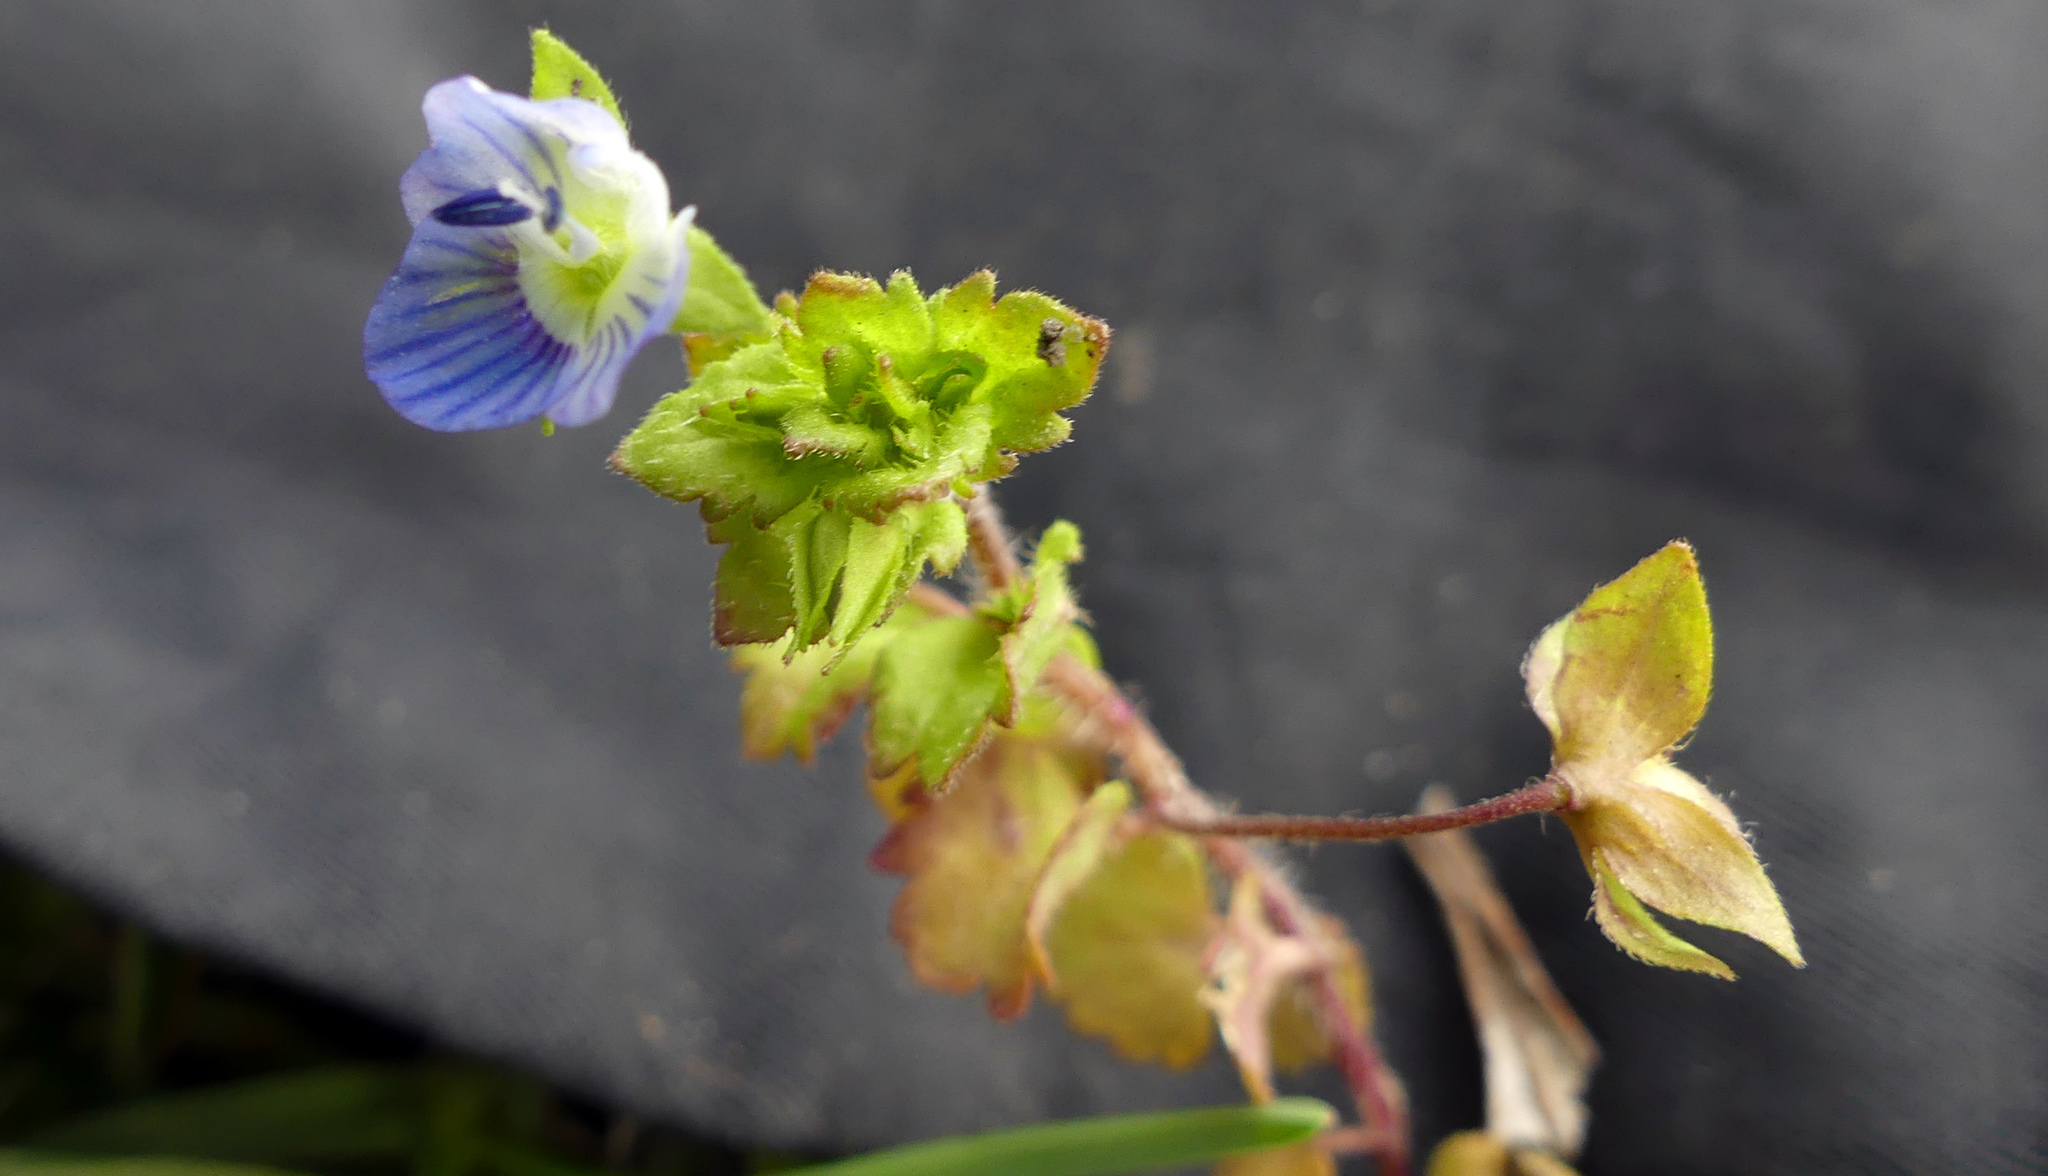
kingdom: Plantae
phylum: Tracheophyta
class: Magnoliopsida
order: Lamiales
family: Plantaginaceae
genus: Veronica
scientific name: Veronica persica
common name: Common field-speedwell
